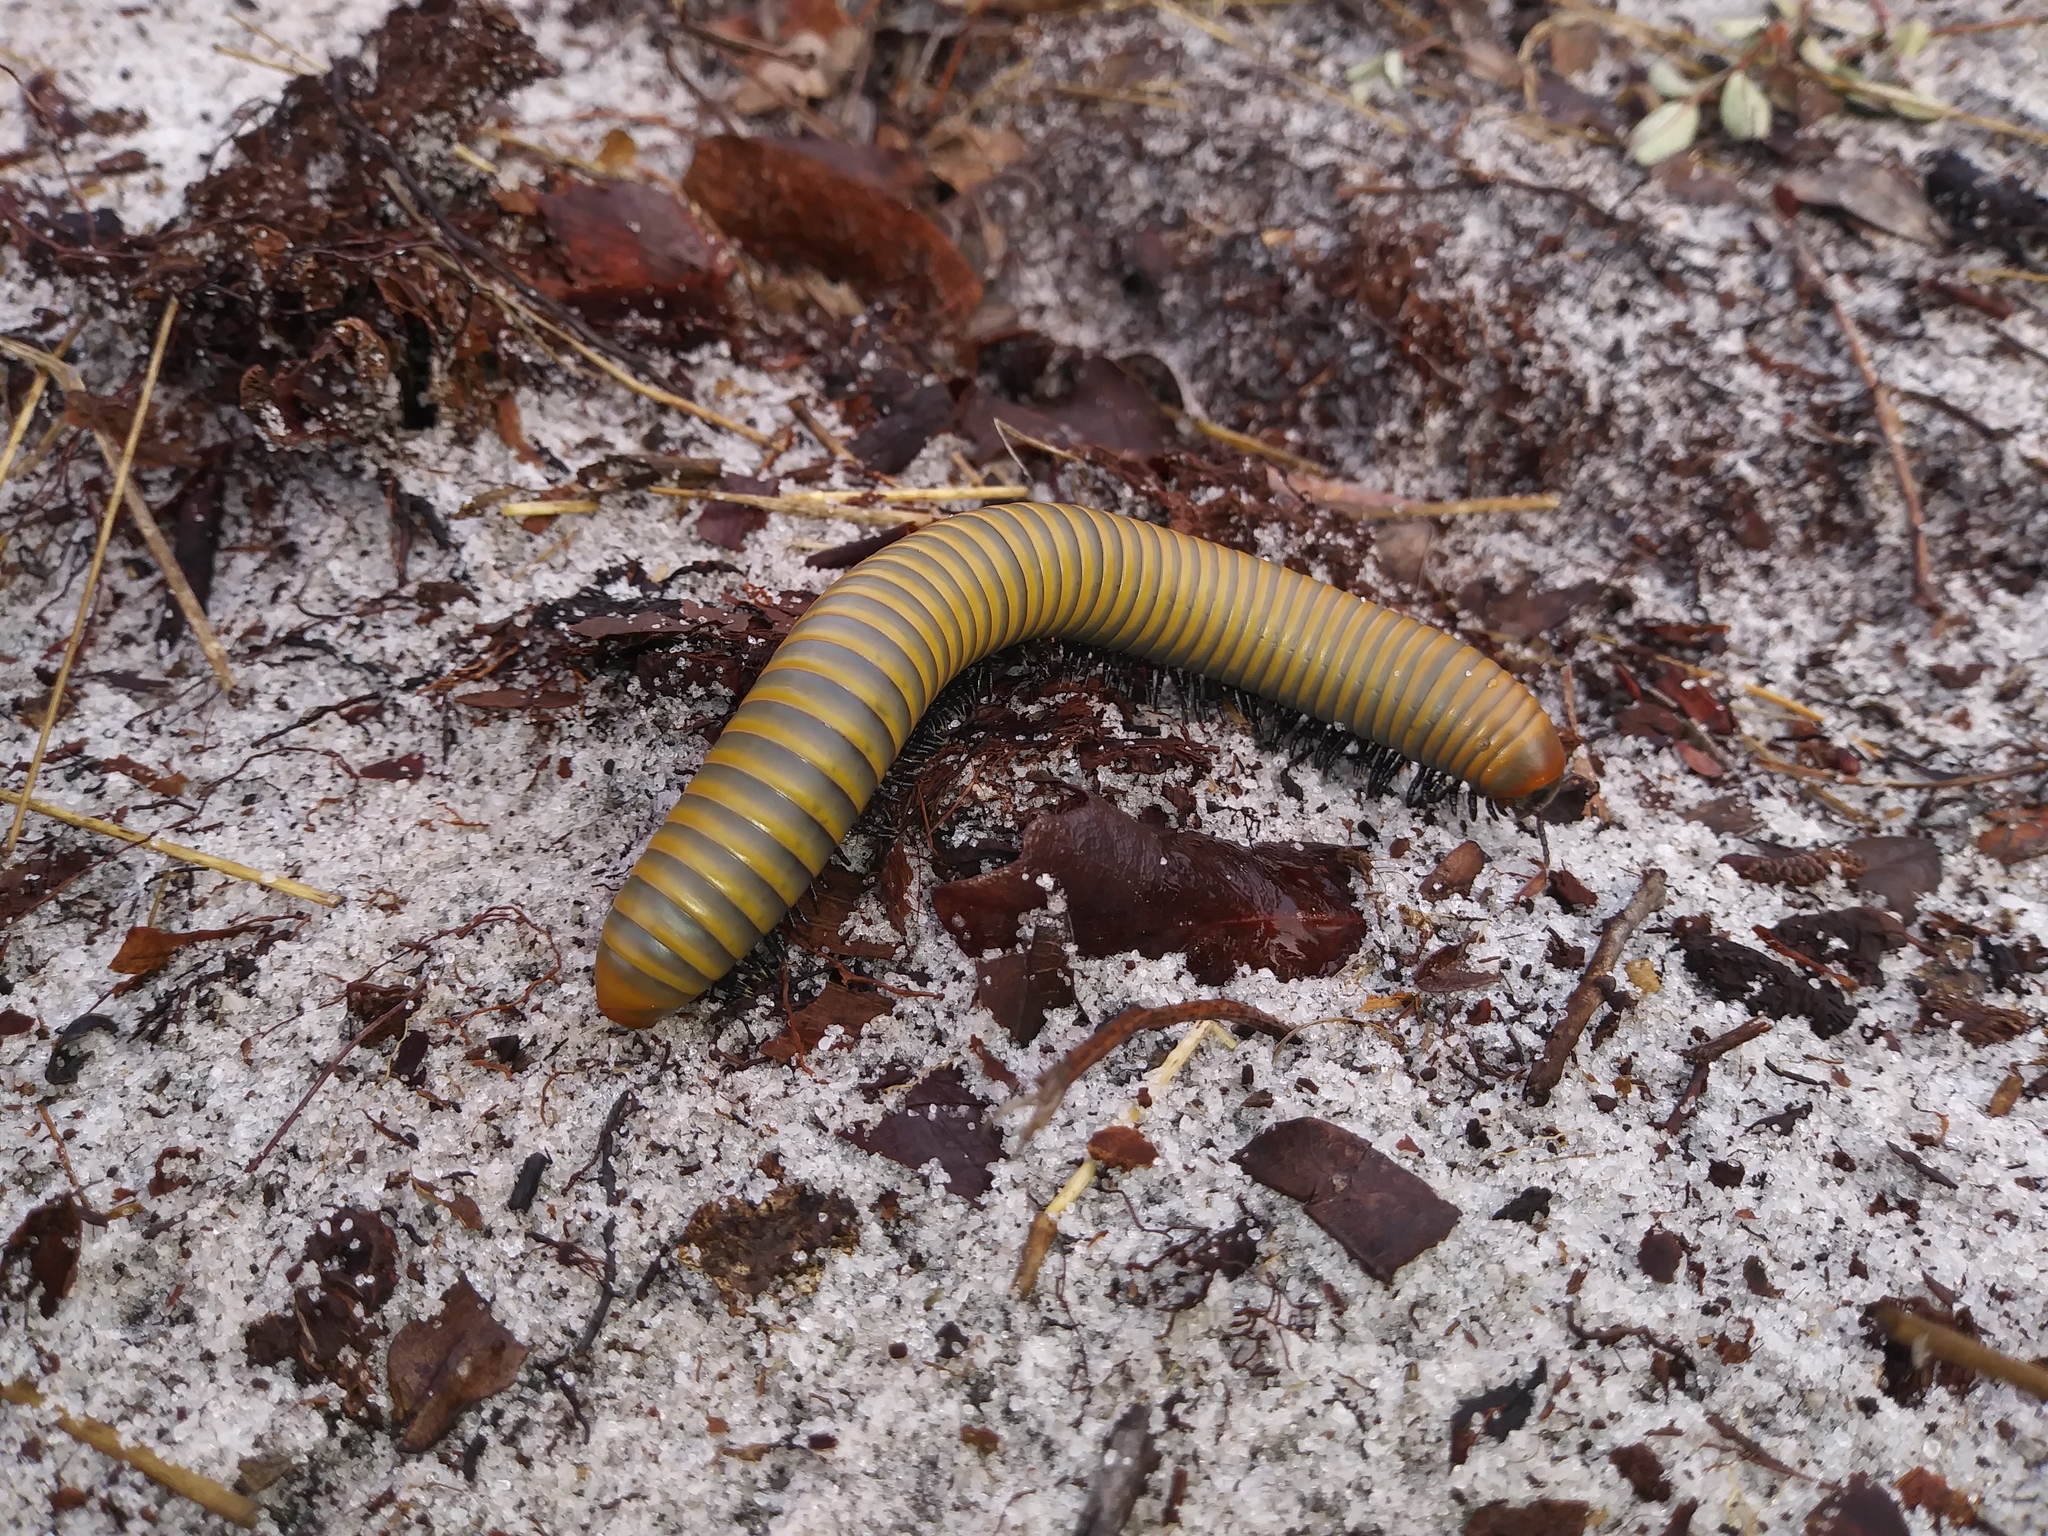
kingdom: Animalia
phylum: Arthropoda
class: Diplopoda
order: Spirobolida
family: Spirobolidae
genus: Narceus
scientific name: Narceus gordanus
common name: Grayish-green millipede
